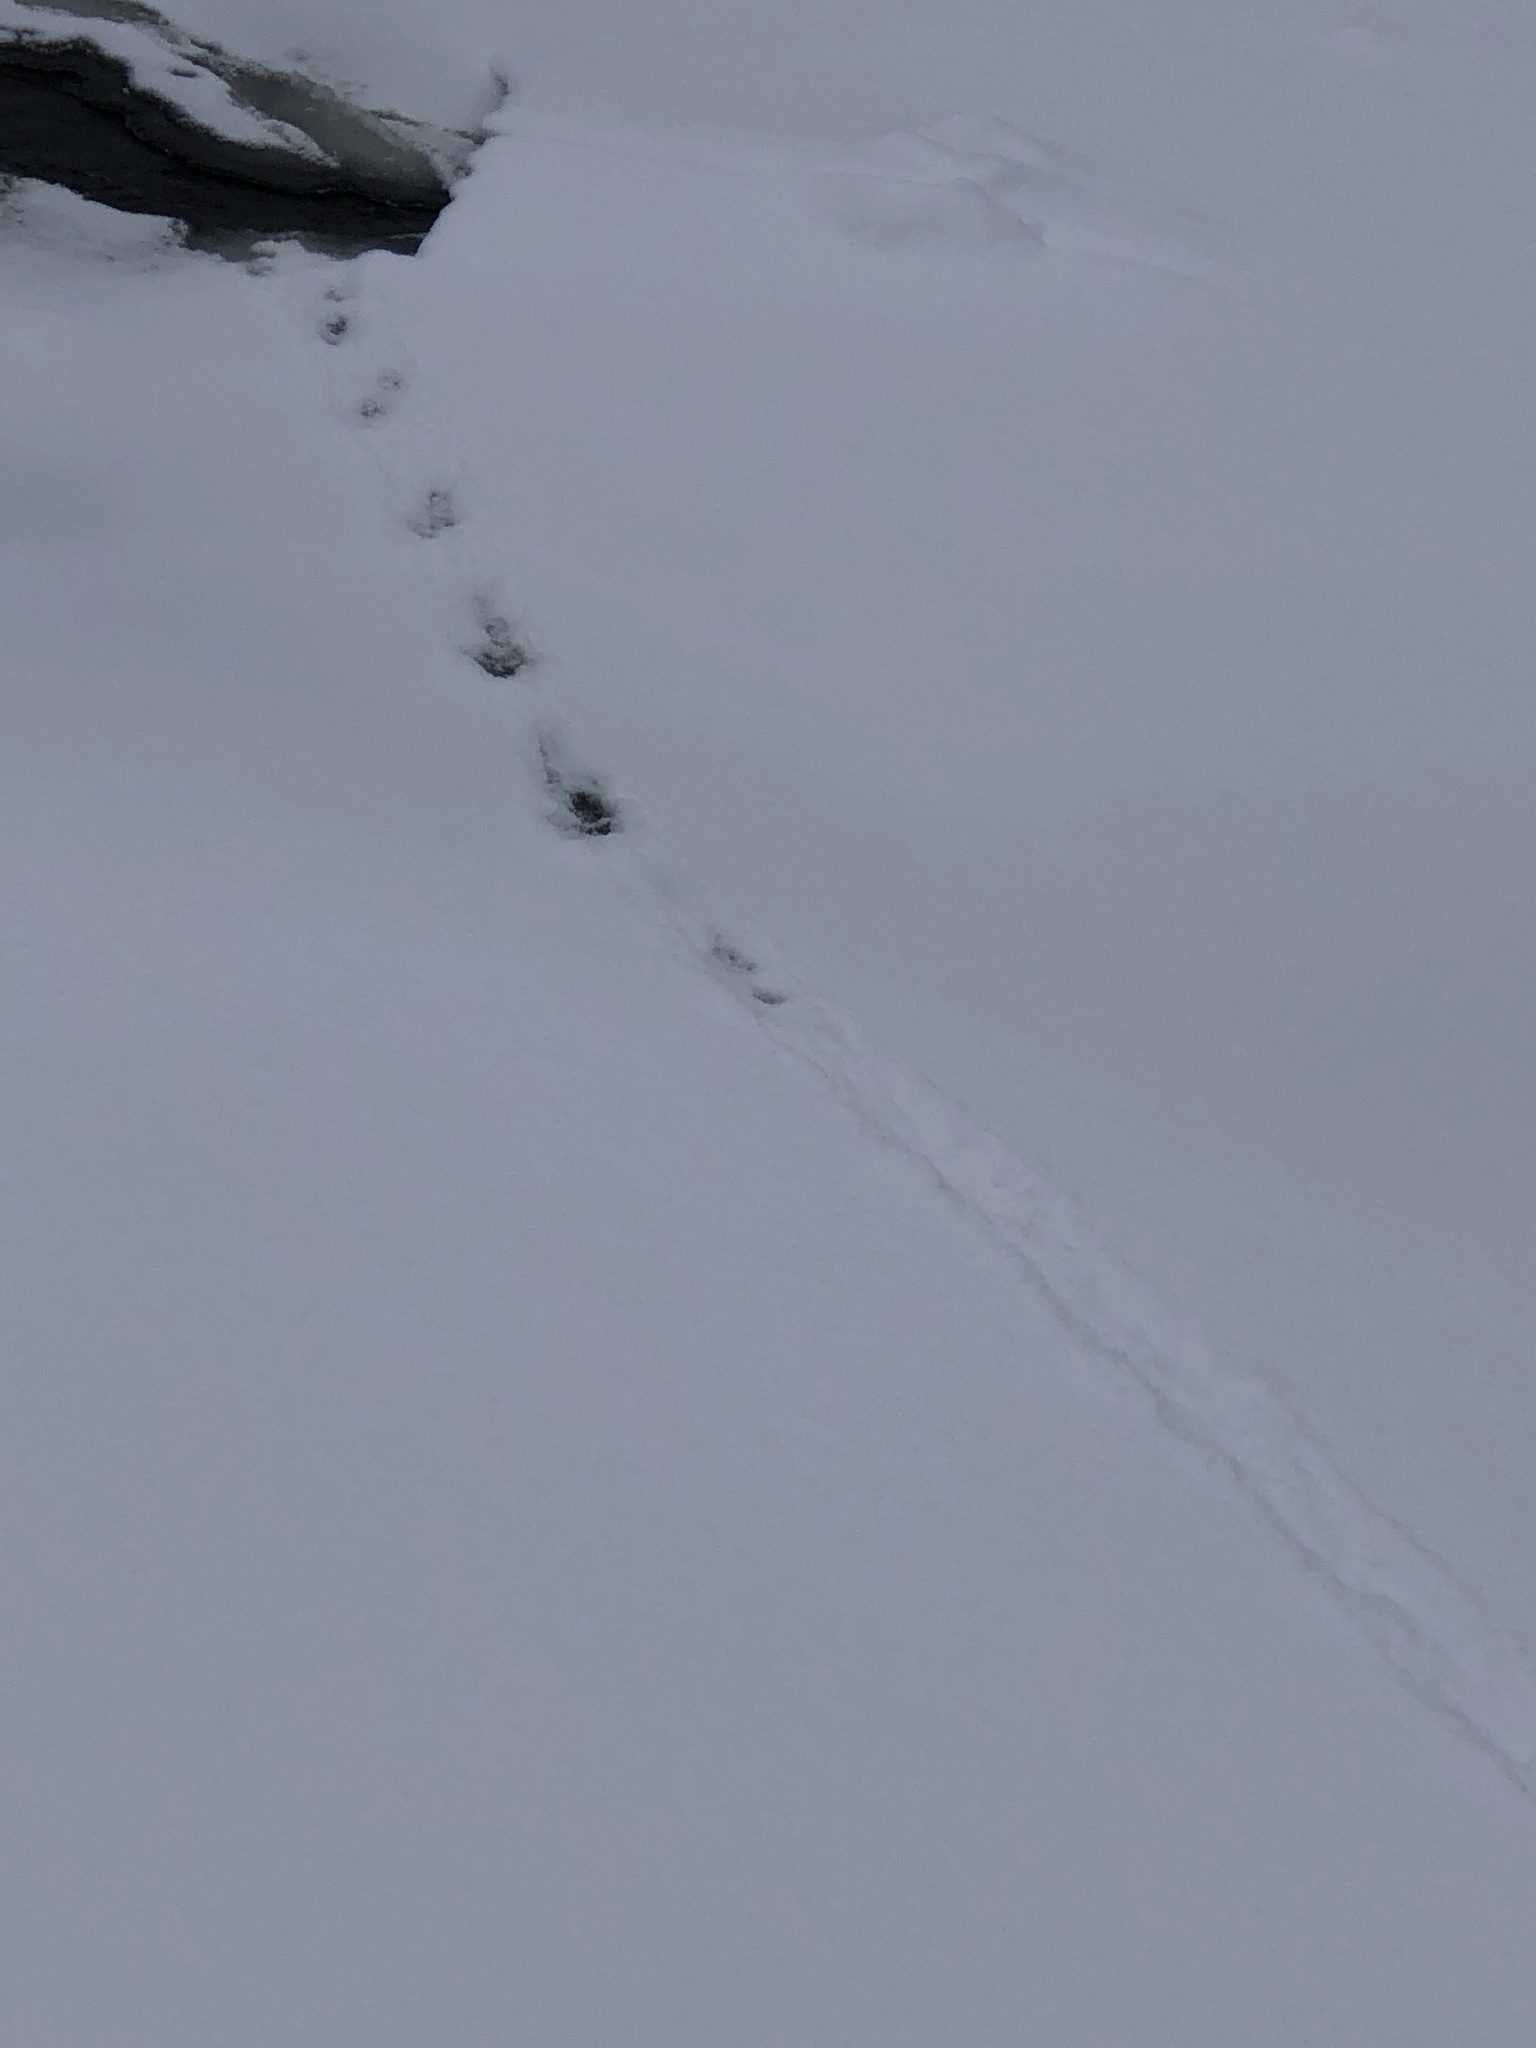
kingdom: Animalia
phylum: Chordata
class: Mammalia
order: Carnivora
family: Mustelidae
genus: Lontra
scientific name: Lontra canadensis
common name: North american river otter
